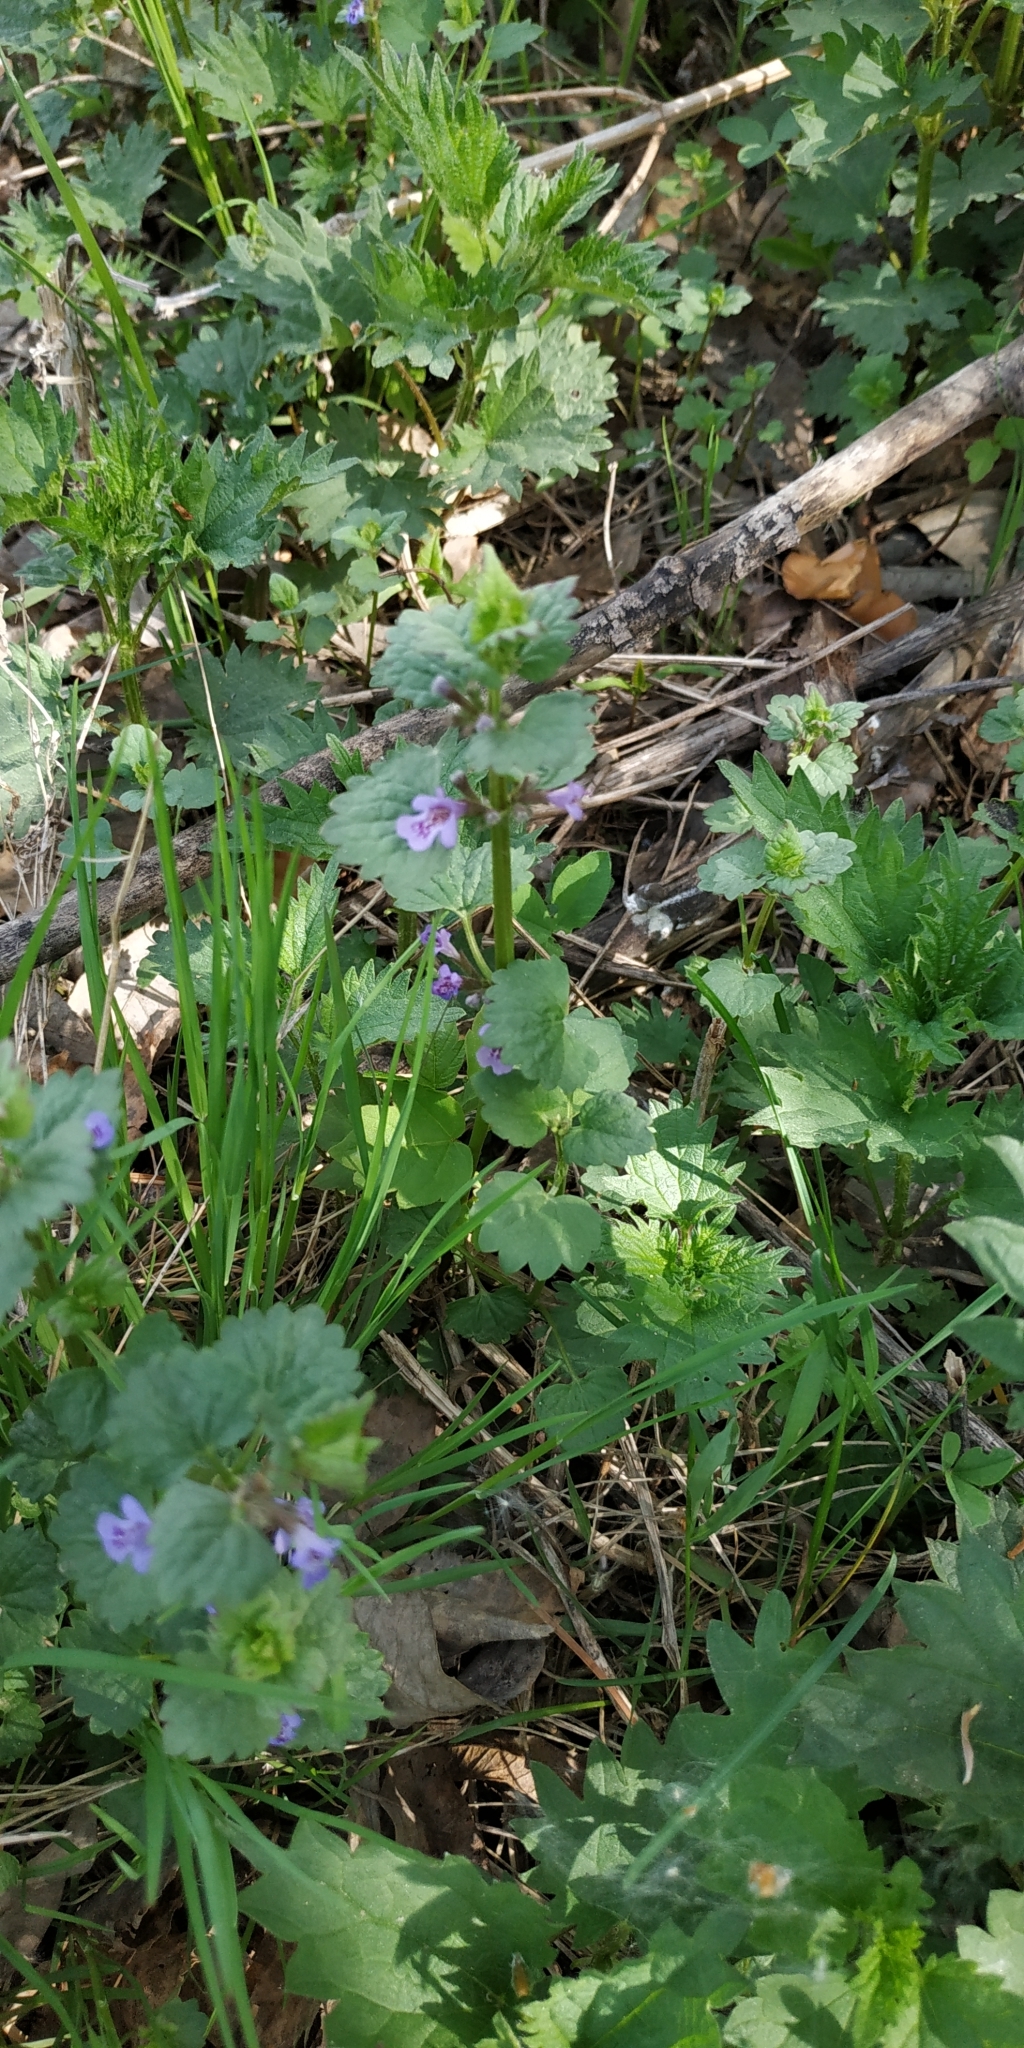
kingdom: Plantae
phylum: Tracheophyta
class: Magnoliopsida
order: Lamiales
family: Lamiaceae
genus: Glechoma
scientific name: Glechoma hederacea
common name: Ground ivy
